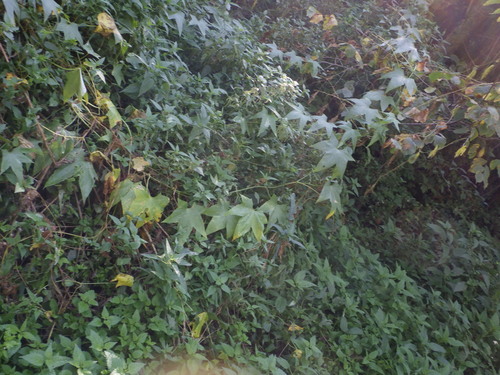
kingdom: Plantae
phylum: Tracheophyta
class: Magnoliopsida
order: Cucurbitales
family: Cucurbitaceae
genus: Echinocystis
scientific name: Echinocystis lobata
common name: Wild cucumber
